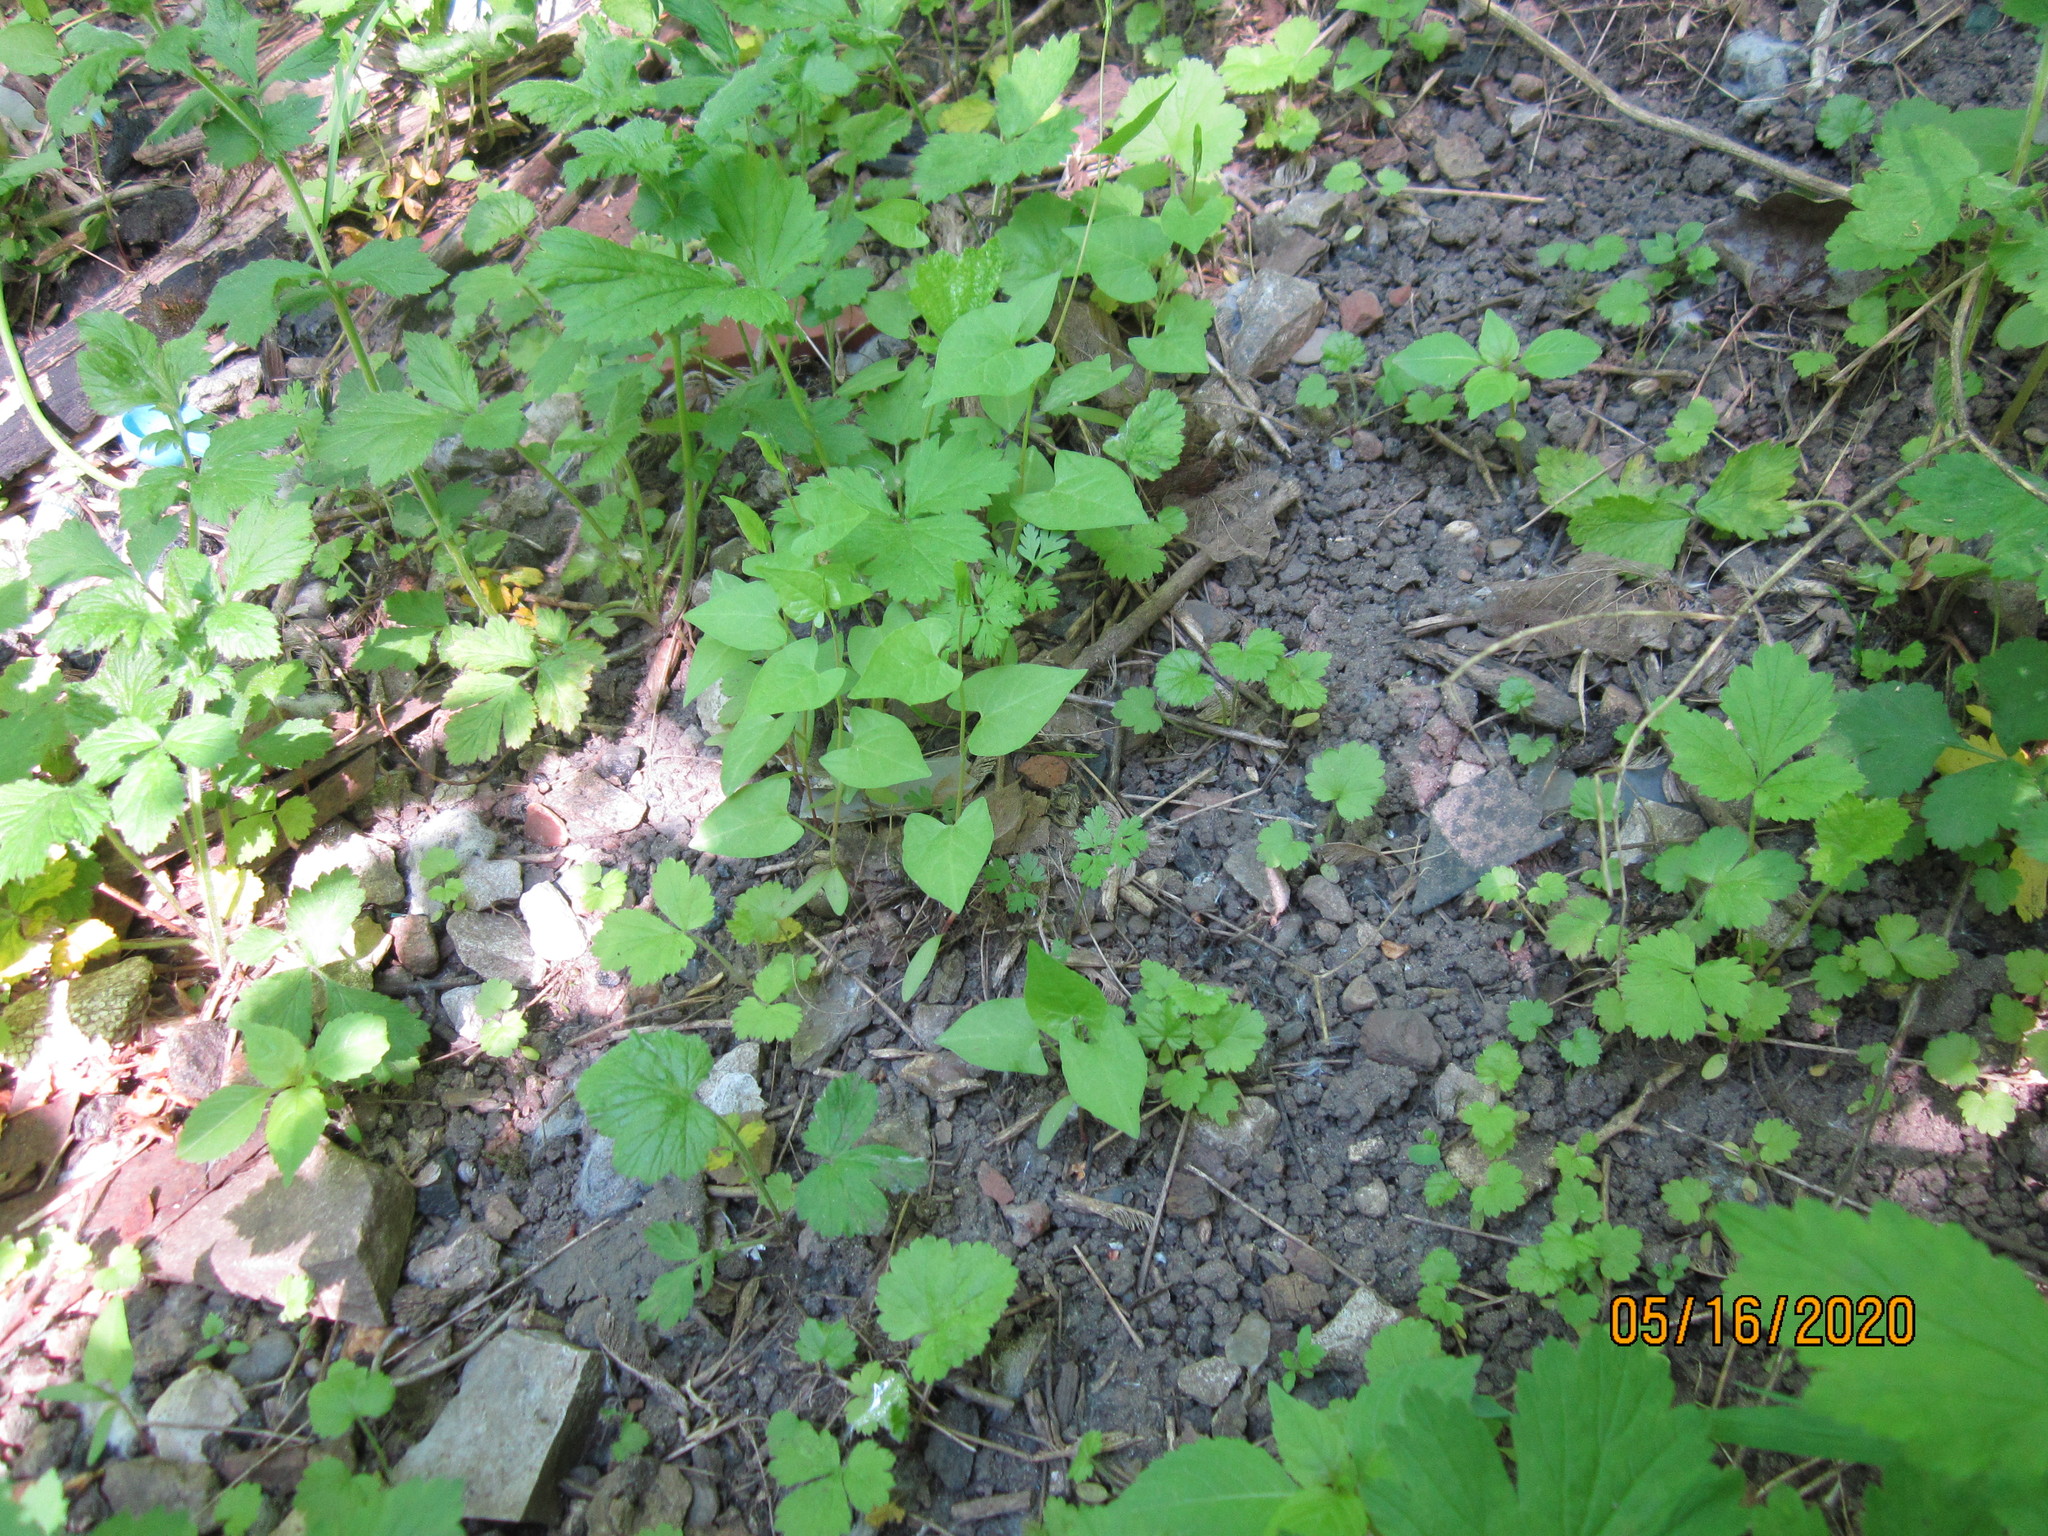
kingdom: Plantae
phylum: Tracheophyta
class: Magnoliopsida
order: Caryophyllales
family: Polygonaceae
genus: Fallopia
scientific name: Fallopia convolvulus
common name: Black bindweed
